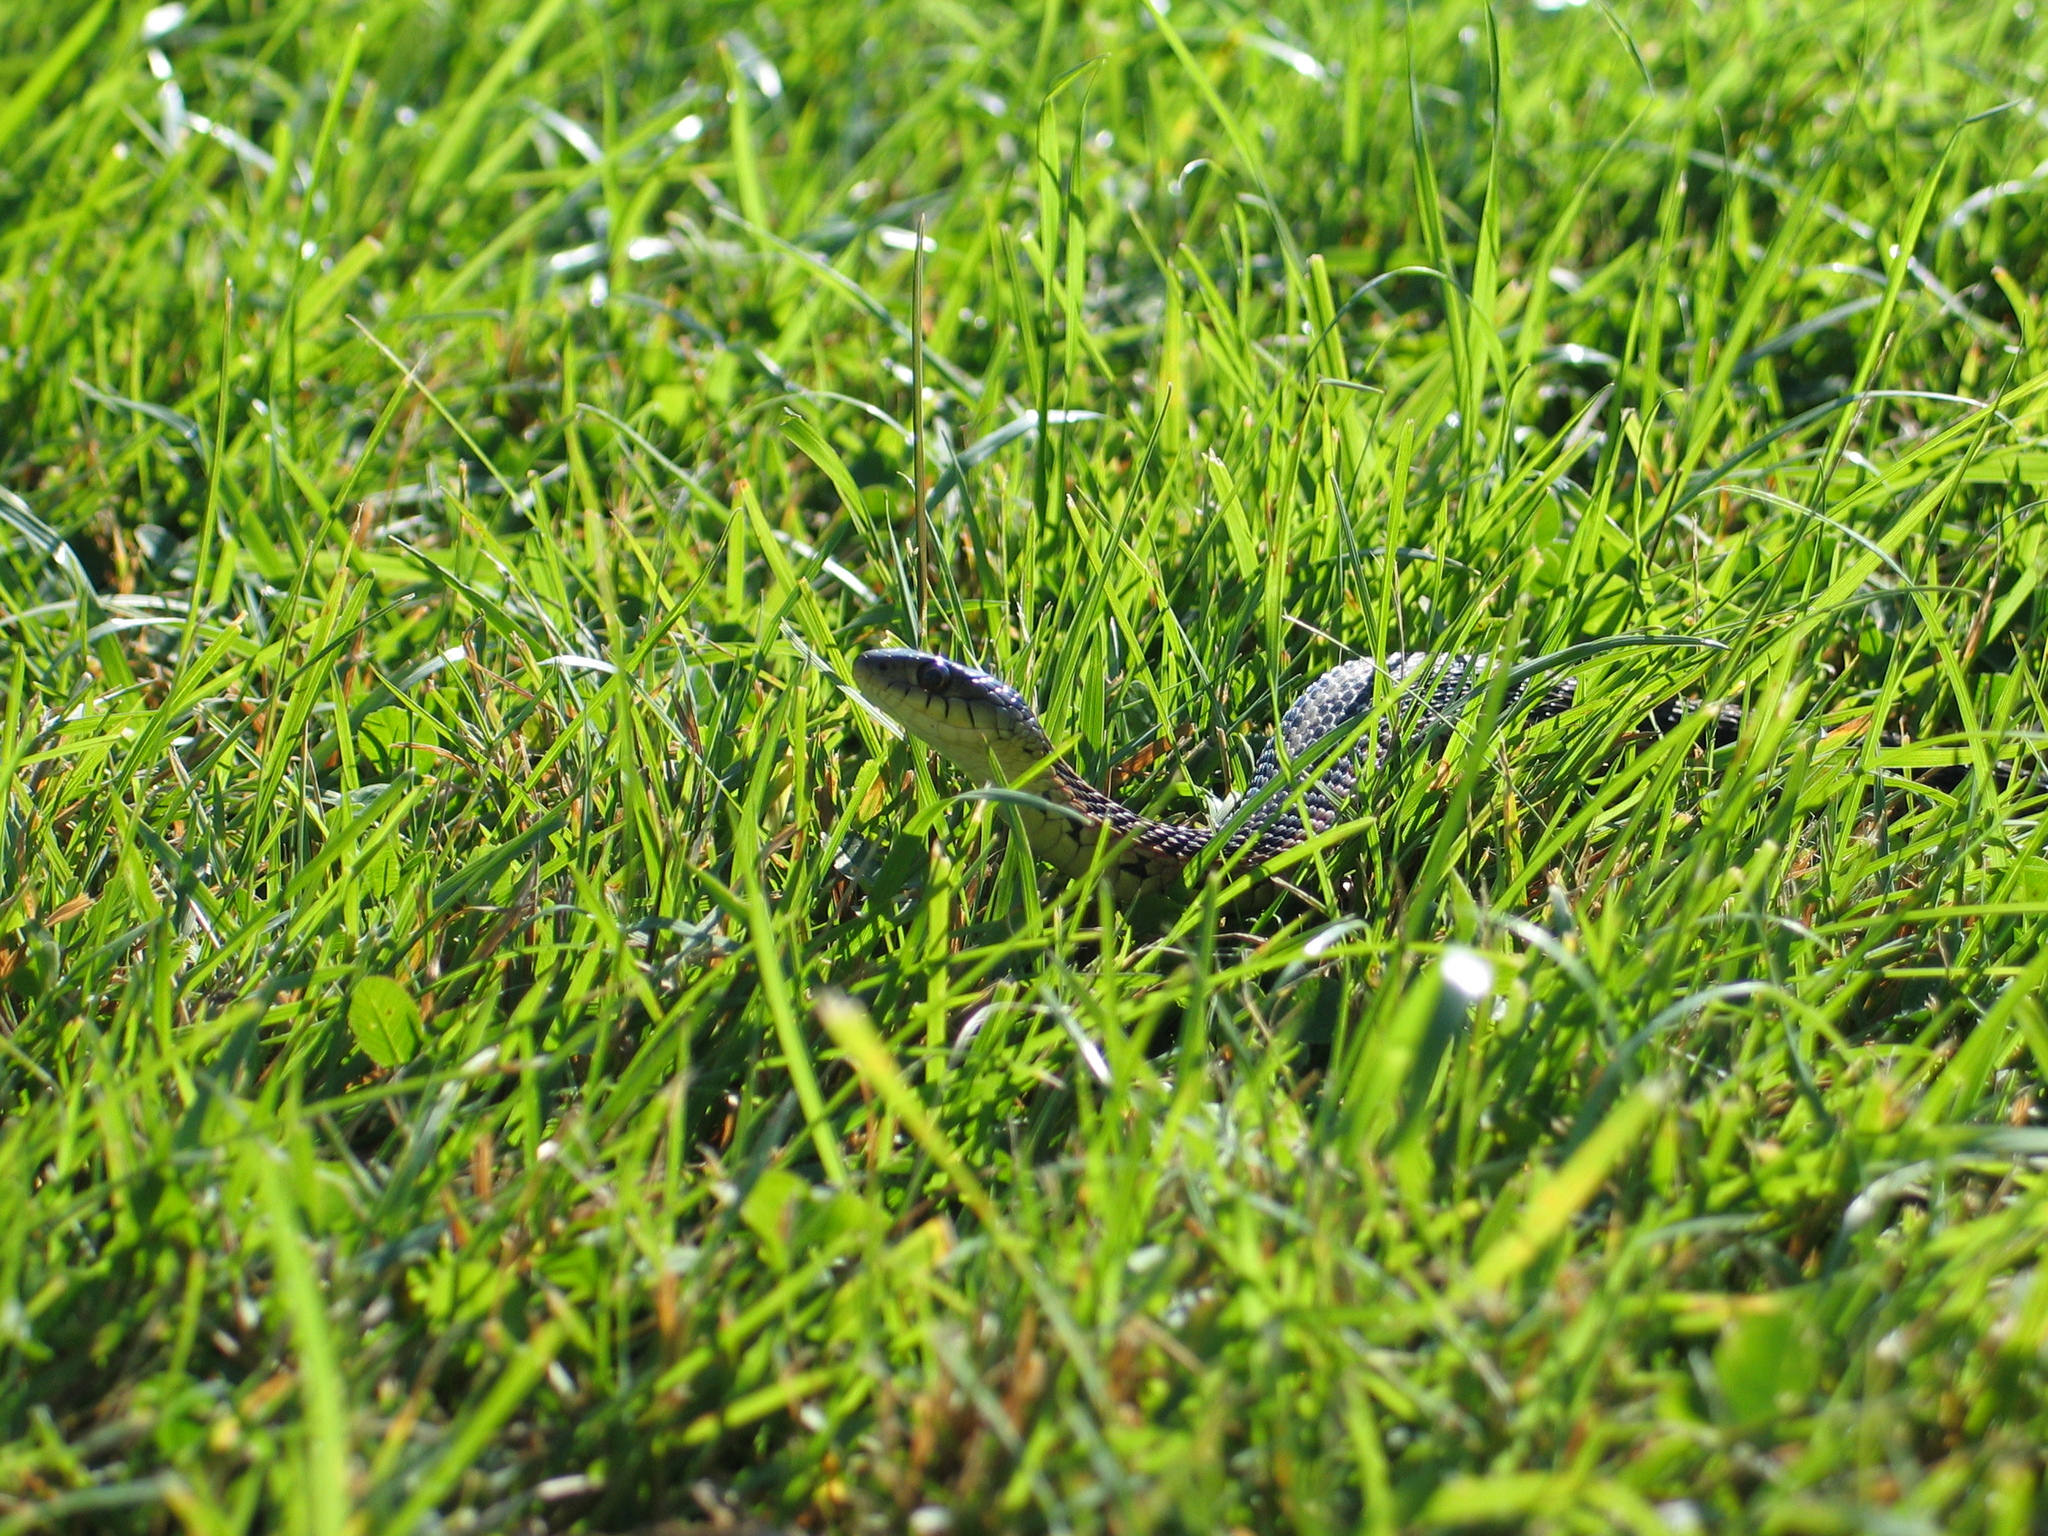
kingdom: Animalia
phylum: Chordata
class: Squamata
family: Colubridae
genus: Thamnophis
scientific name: Thamnophis sirtalis
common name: Common garter snake
